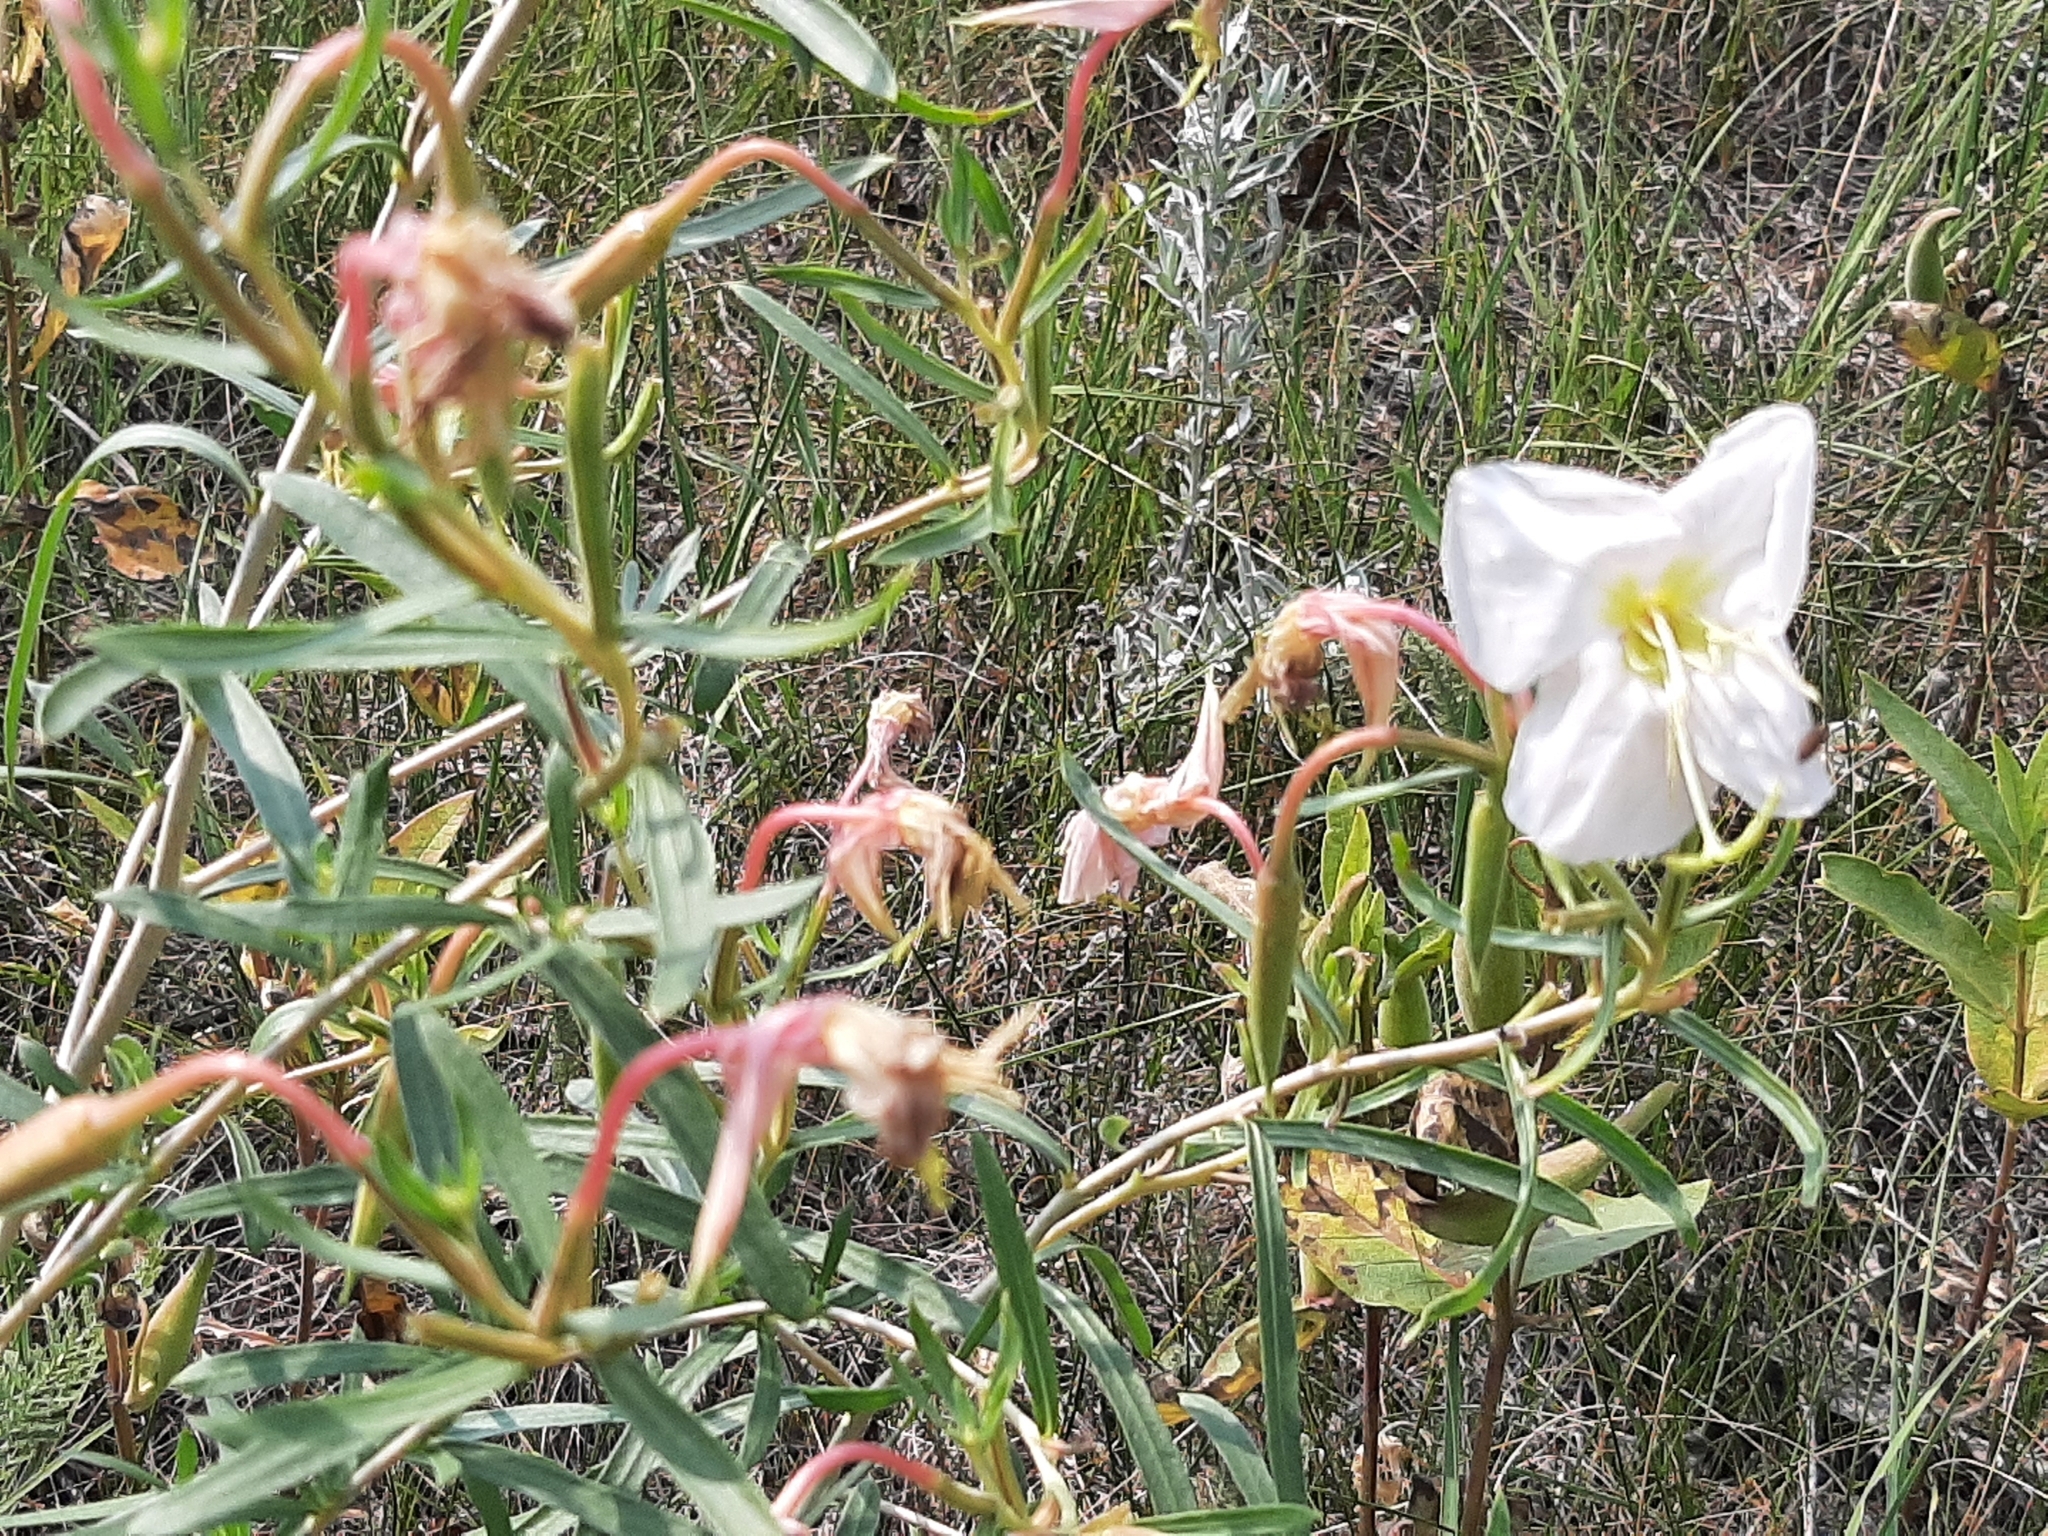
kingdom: Plantae
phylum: Tracheophyta
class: Magnoliopsida
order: Myrtales
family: Onagraceae
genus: Oenothera
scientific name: Oenothera nuttallii
